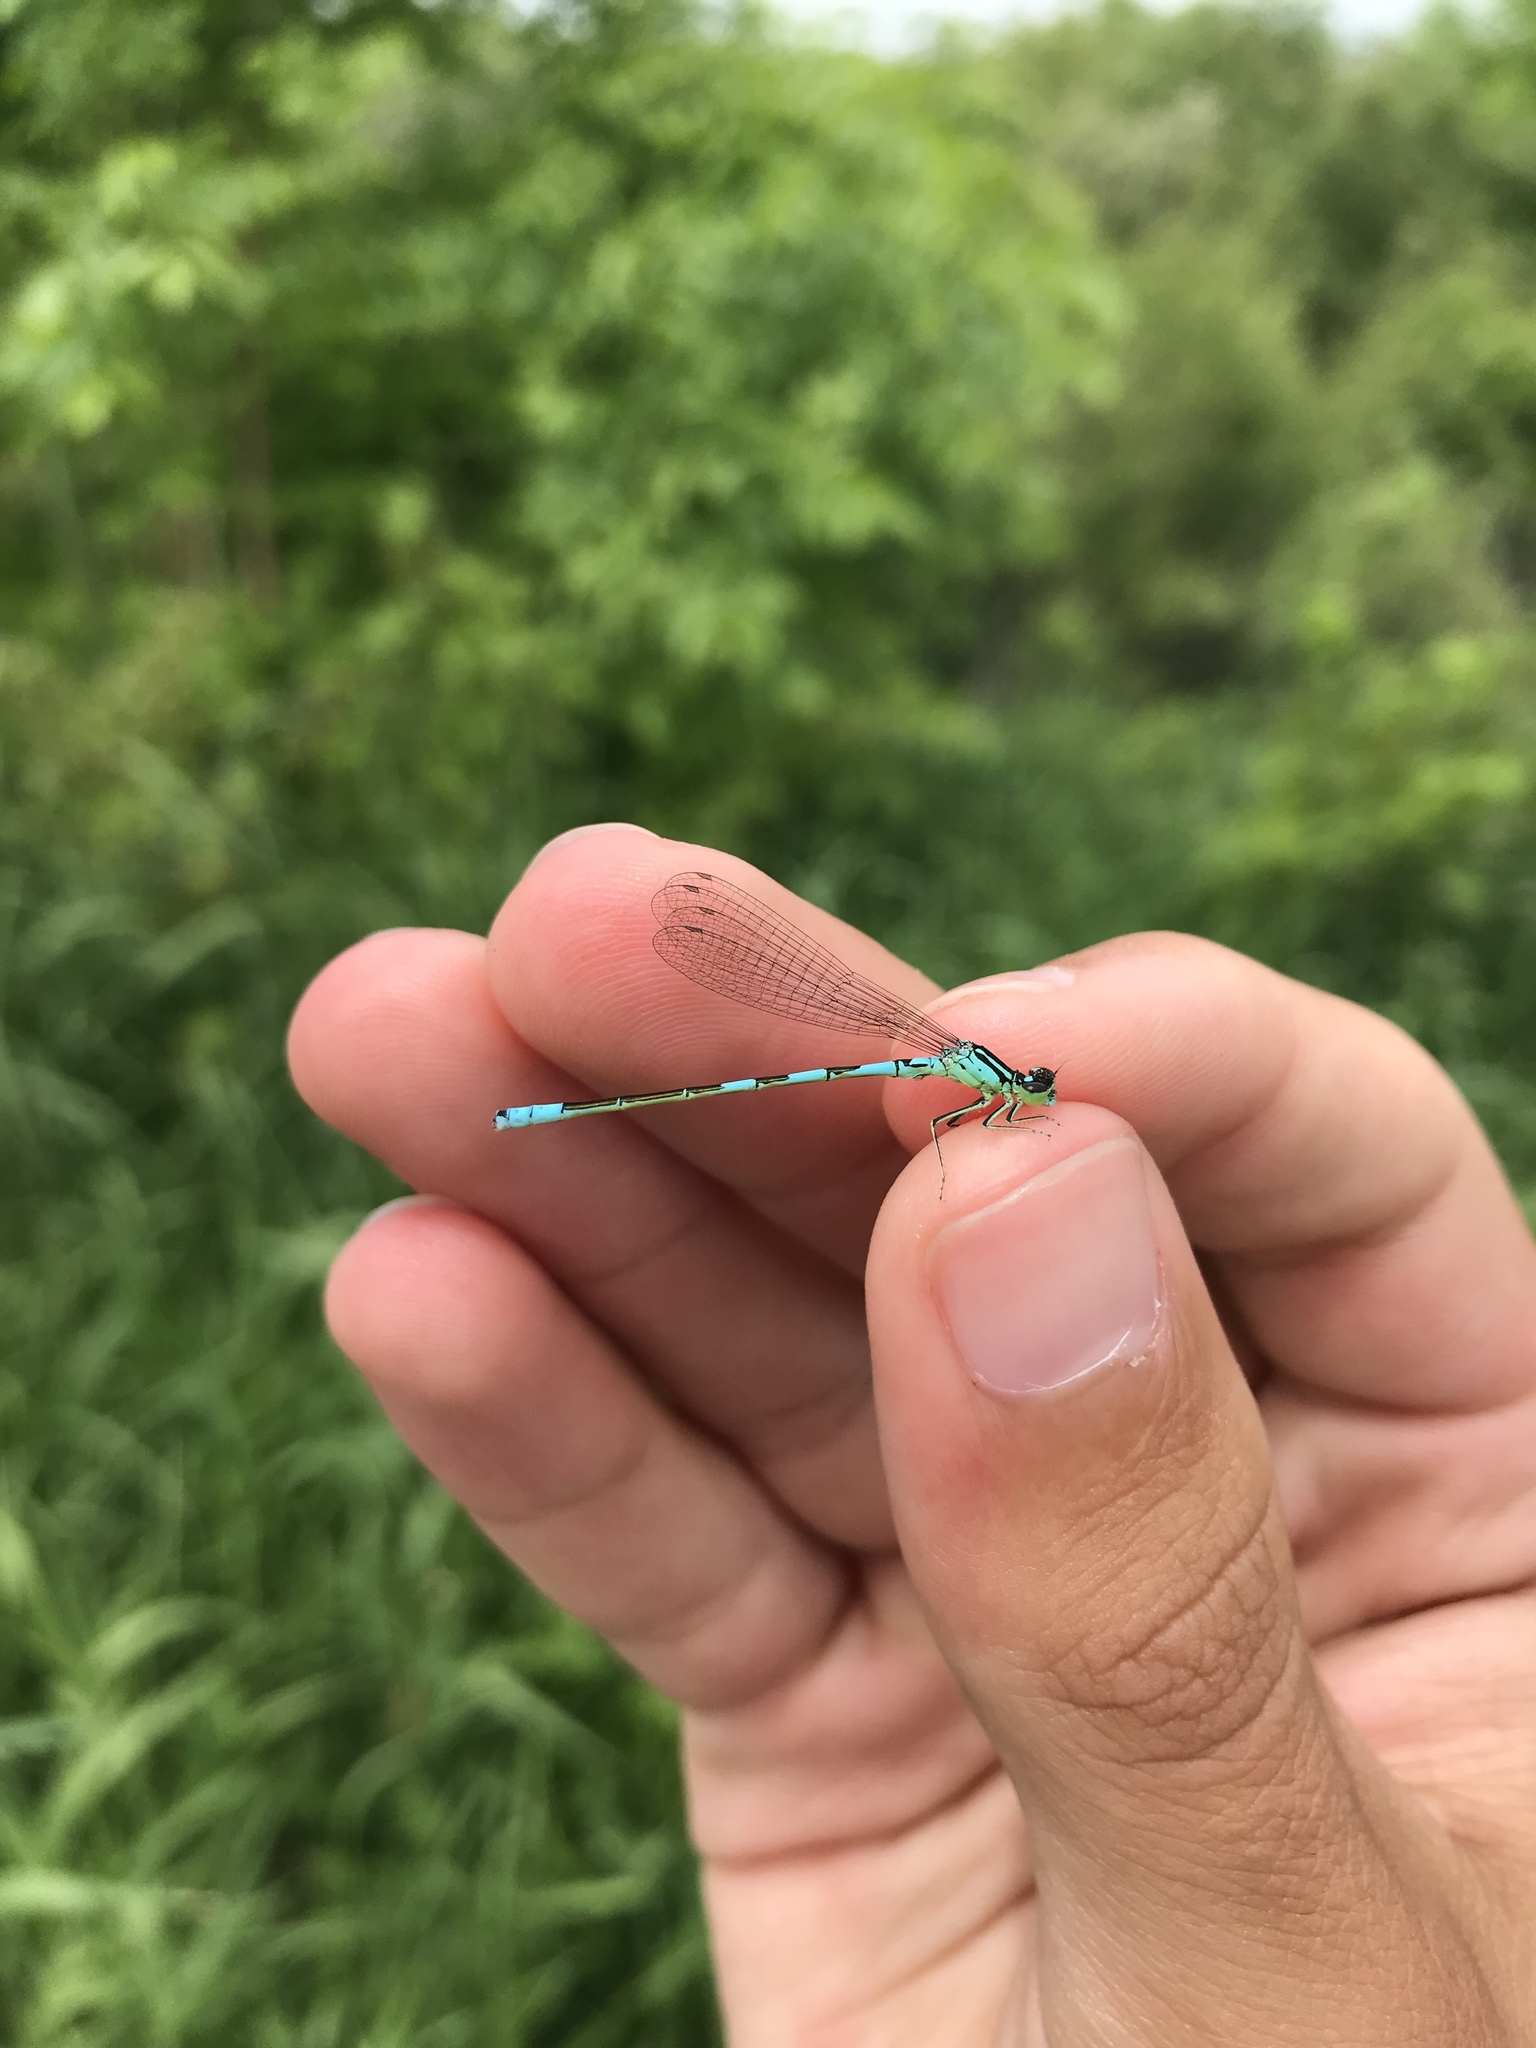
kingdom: Animalia
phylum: Arthropoda
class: Insecta
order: Odonata
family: Coenagrionidae
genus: Coenagrion
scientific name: Coenagrion resolutum
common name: Taiga bluet
